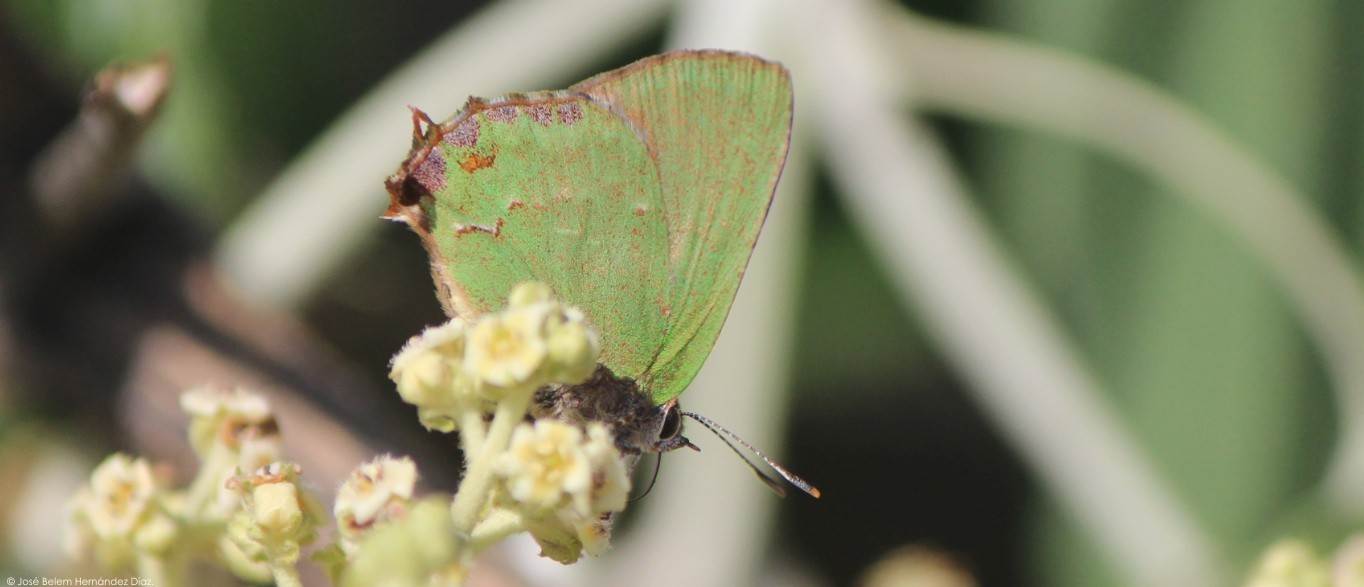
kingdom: Animalia
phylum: Arthropoda
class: Insecta
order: Lepidoptera
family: Lycaenidae
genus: Cyanophrys
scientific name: Cyanophrys longula
